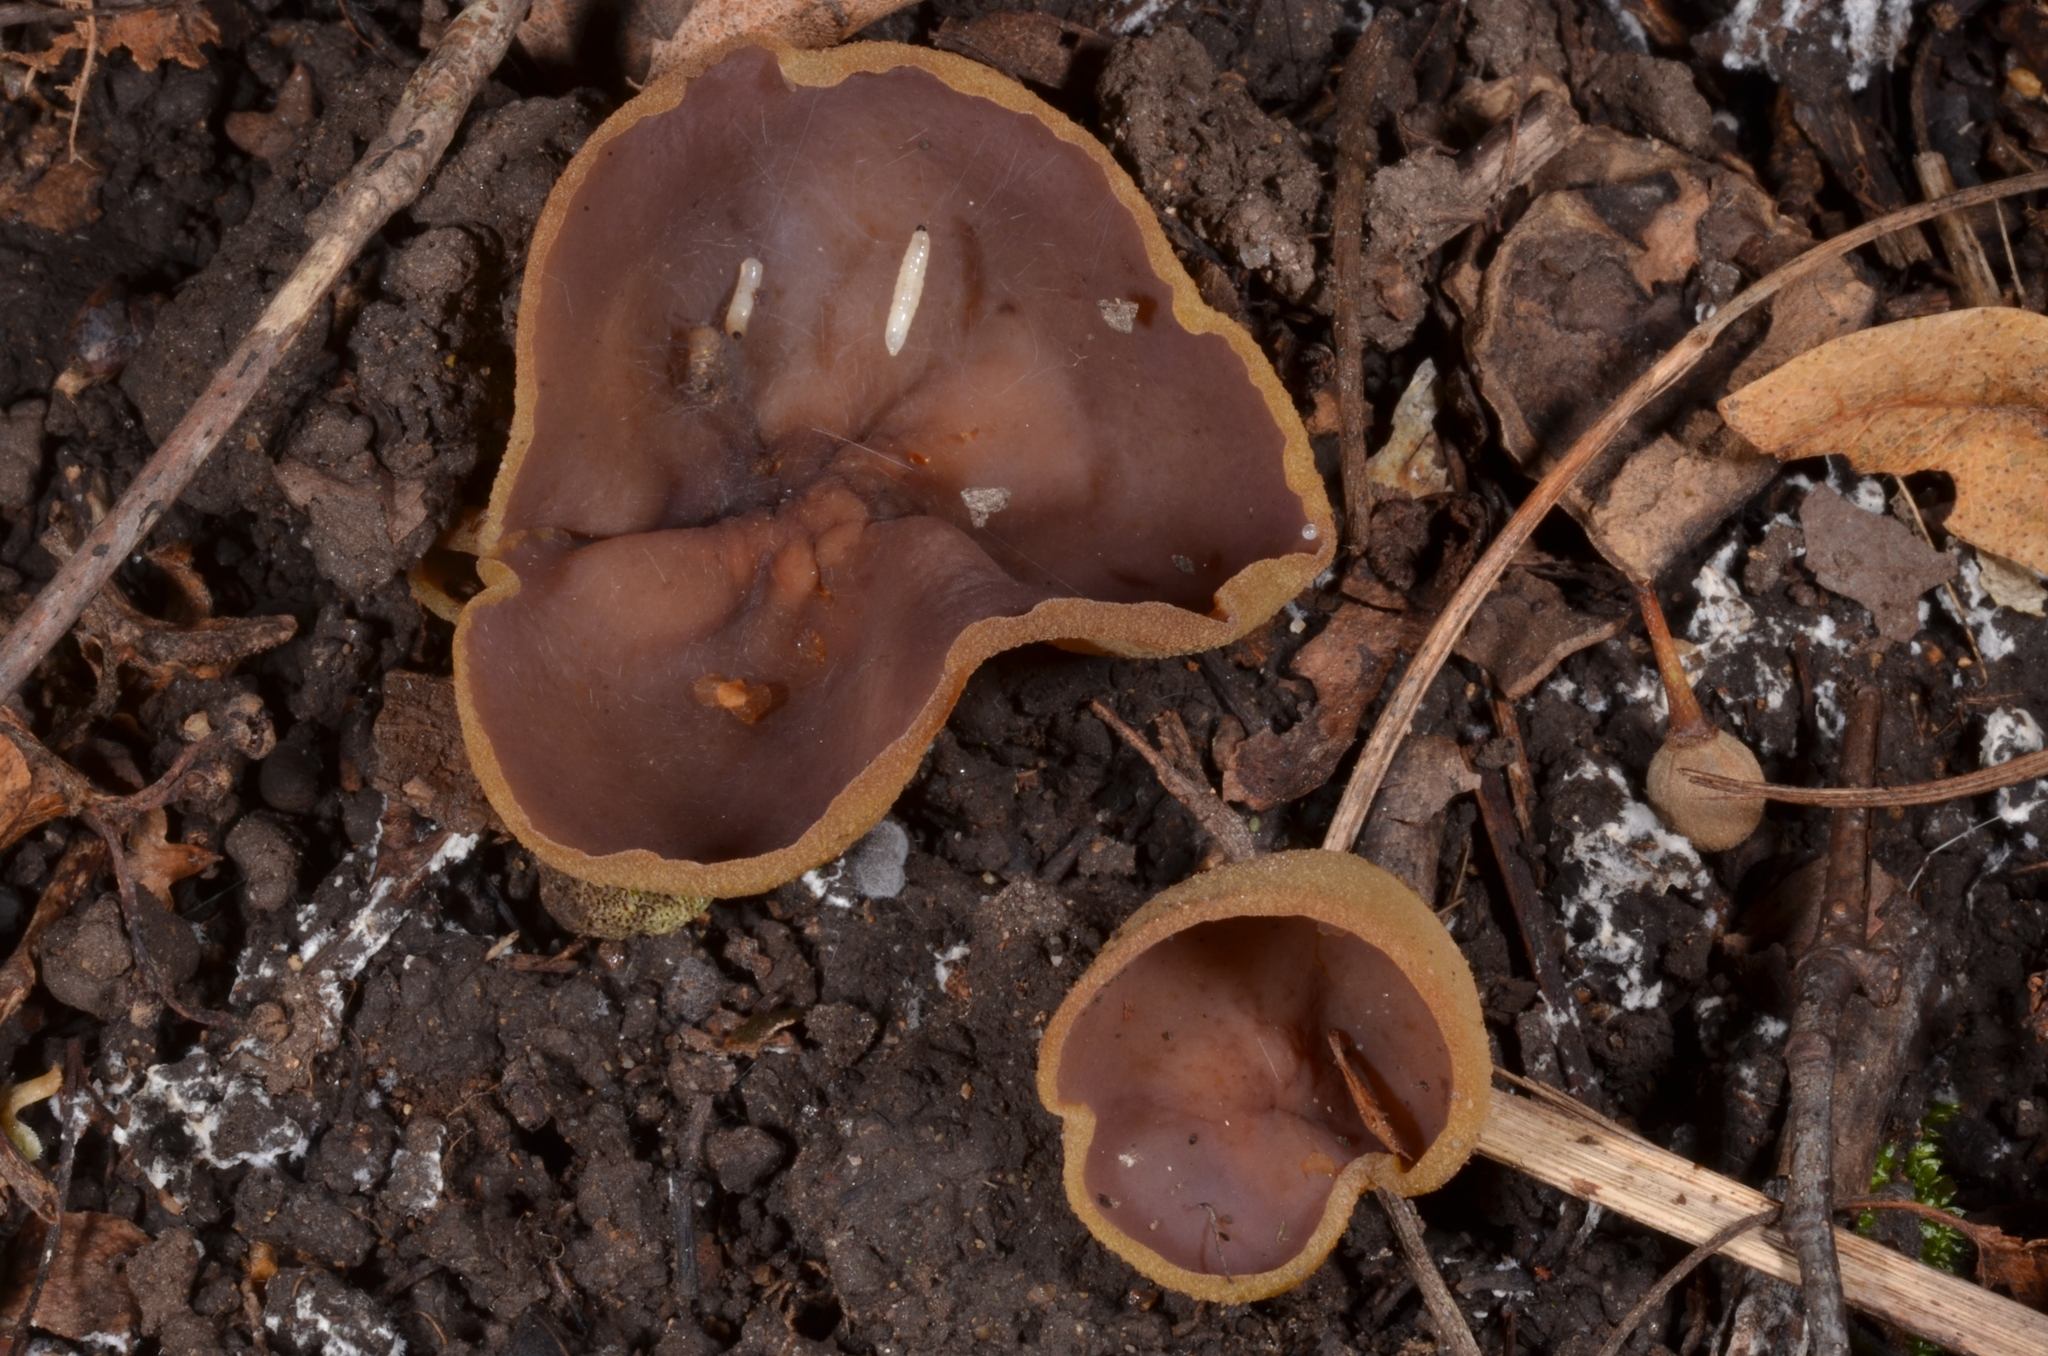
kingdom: Fungi
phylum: Ascomycota
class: Pezizomycetes
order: Pezizales
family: Pezizaceae
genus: Paragalactinia
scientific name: Paragalactinia michelii
